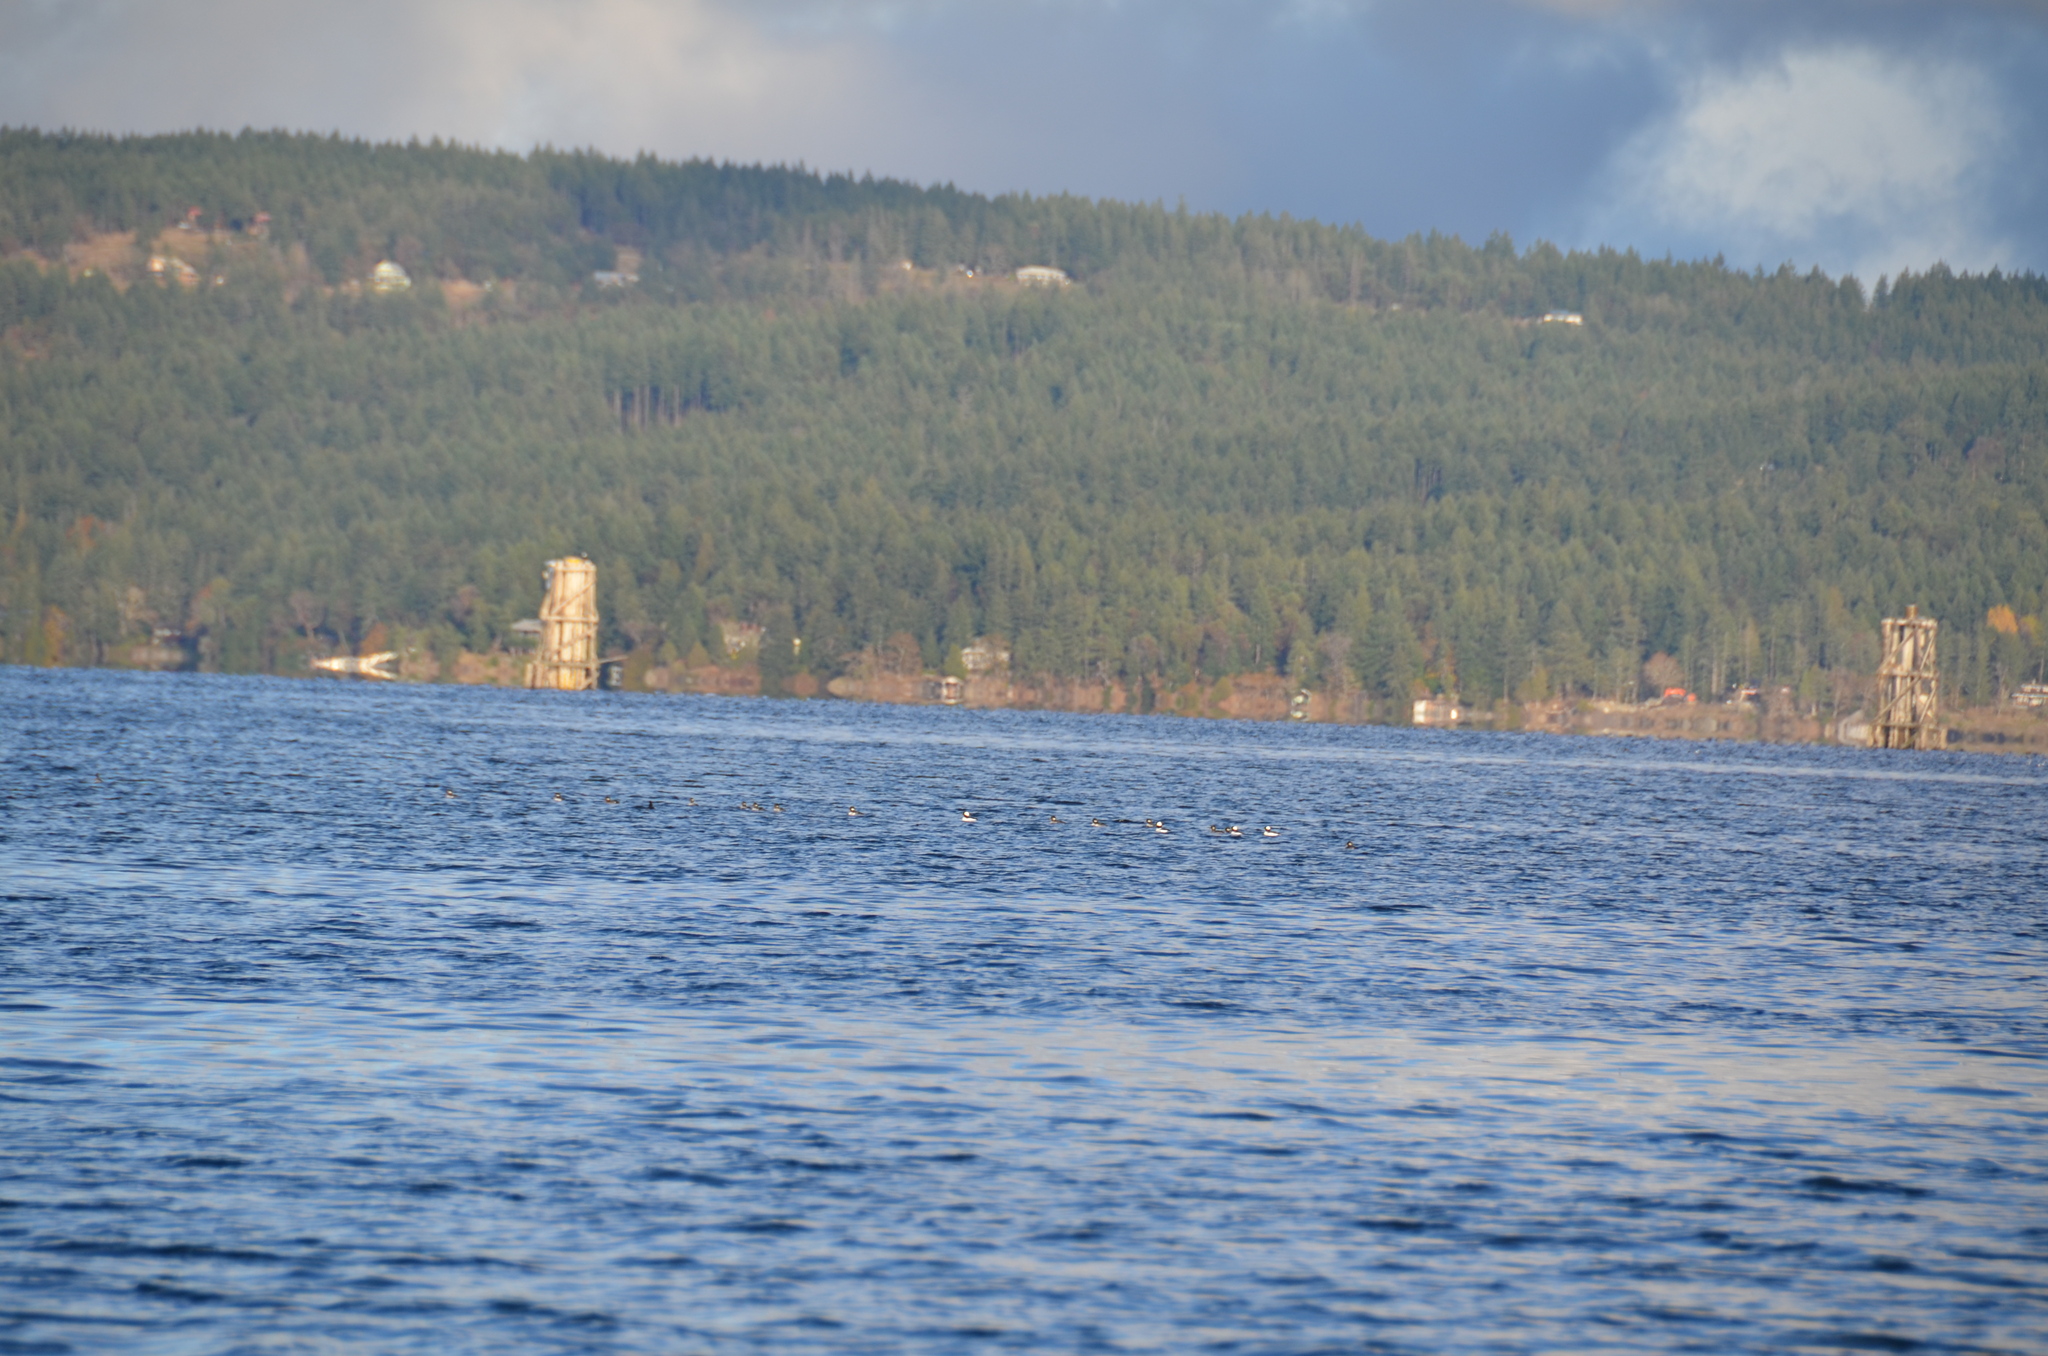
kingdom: Animalia
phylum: Chordata
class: Aves
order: Anseriformes
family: Anatidae
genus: Bucephala
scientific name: Bucephala albeola
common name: Bufflehead
